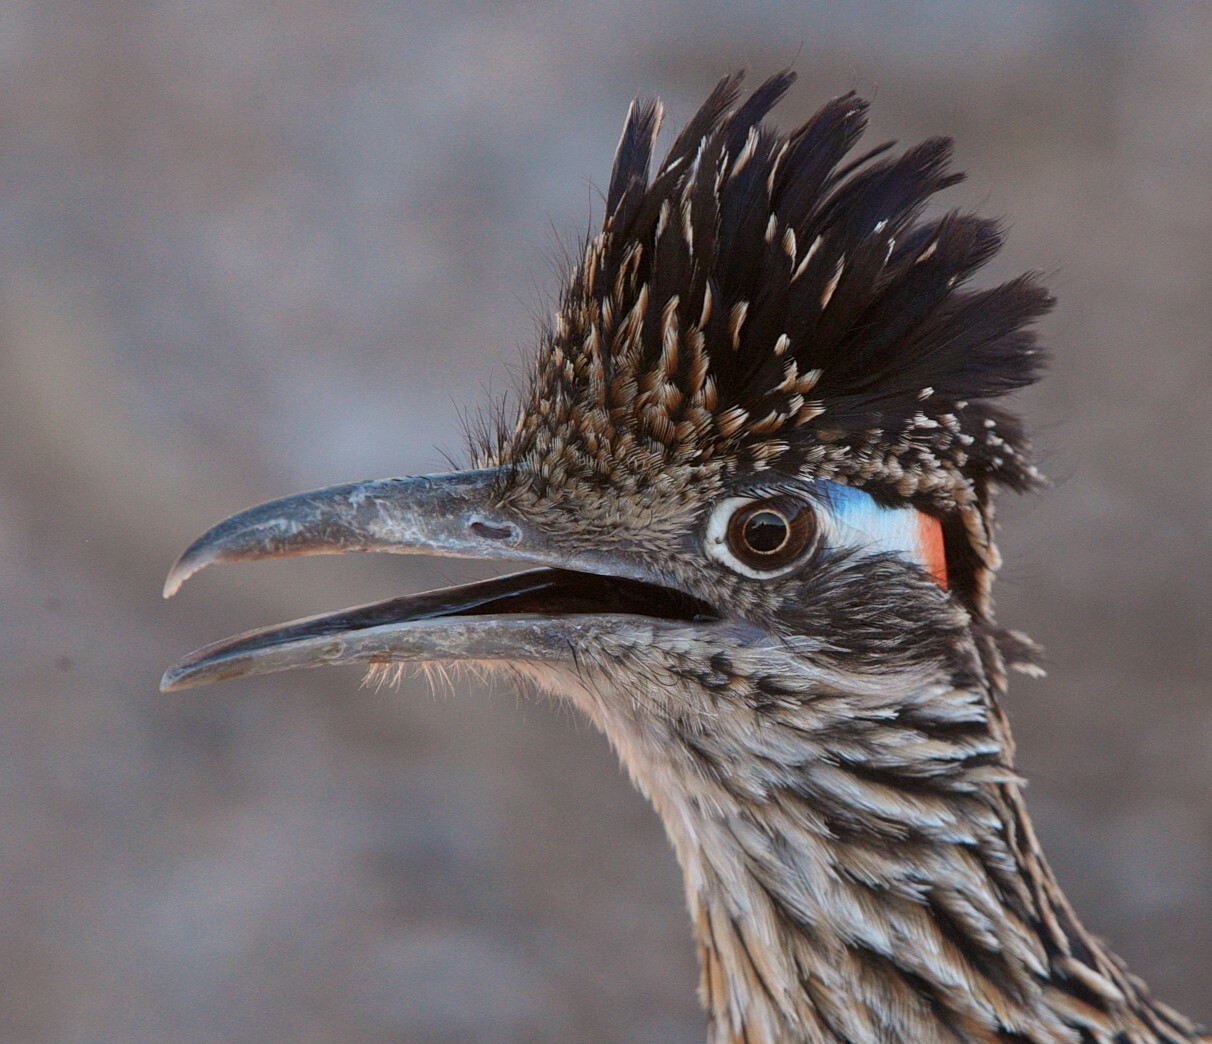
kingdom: Animalia
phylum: Chordata
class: Aves
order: Cuculiformes
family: Cuculidae
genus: Geococcyx
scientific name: Geococcyx californianus
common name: Greater roadrunner
